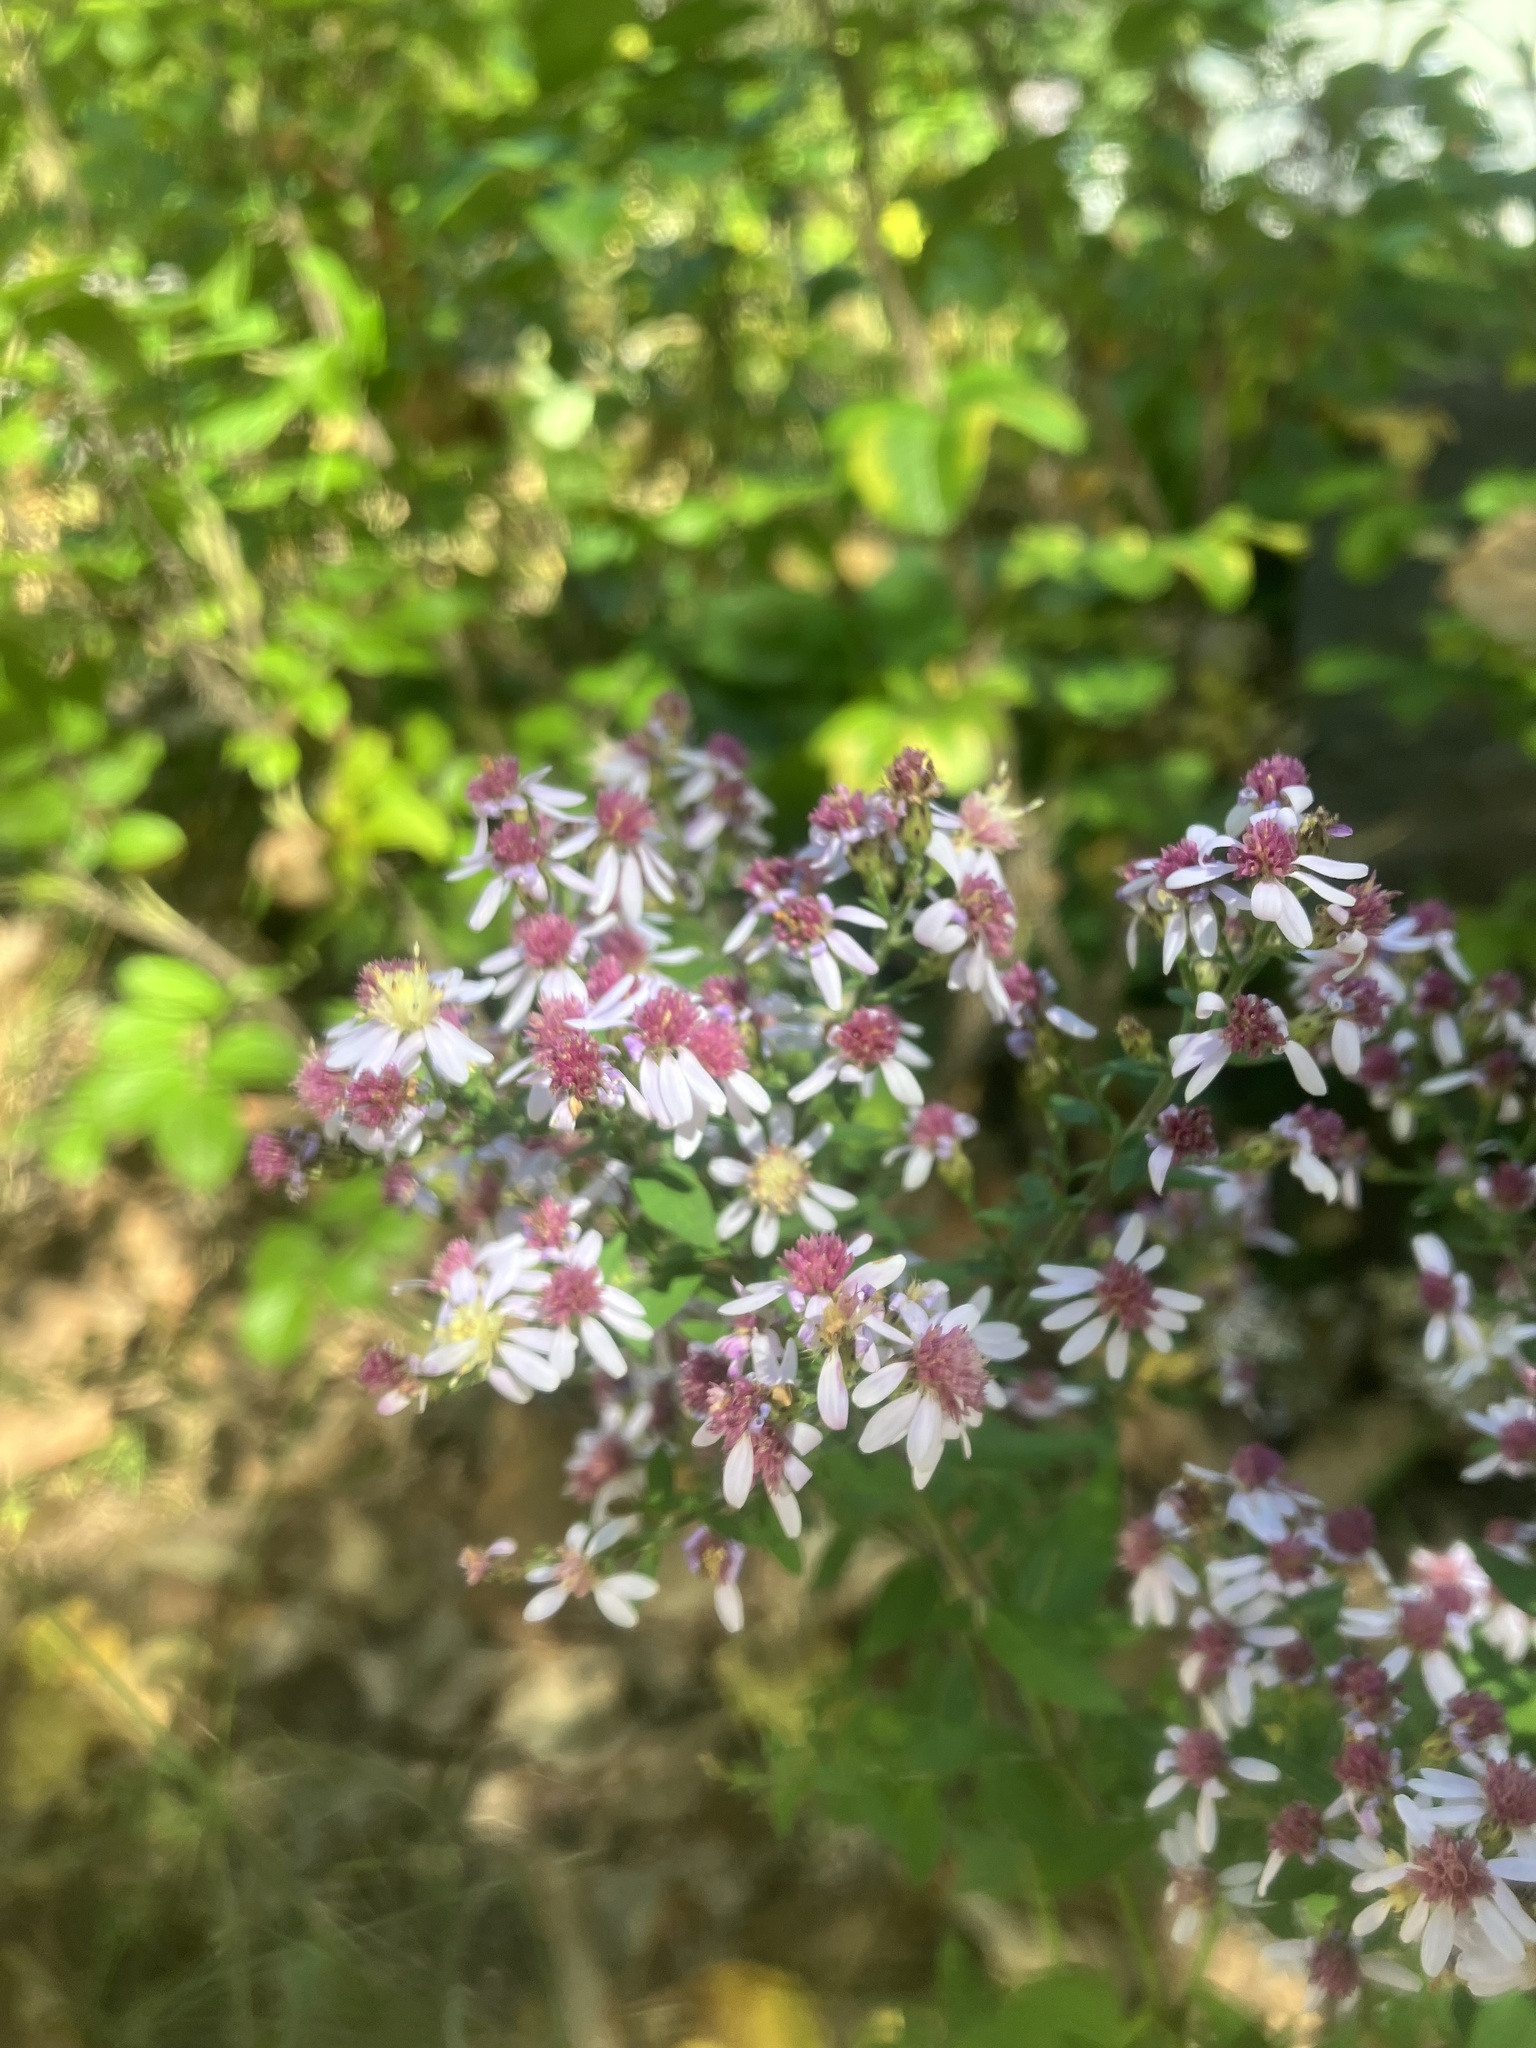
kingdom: Plantae
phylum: Tracheophyta
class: Magnoliopsida
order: Asterales
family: Asteraceae
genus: Symphyotrichum
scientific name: Symphyotrichum cordifolium
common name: Beeweed
